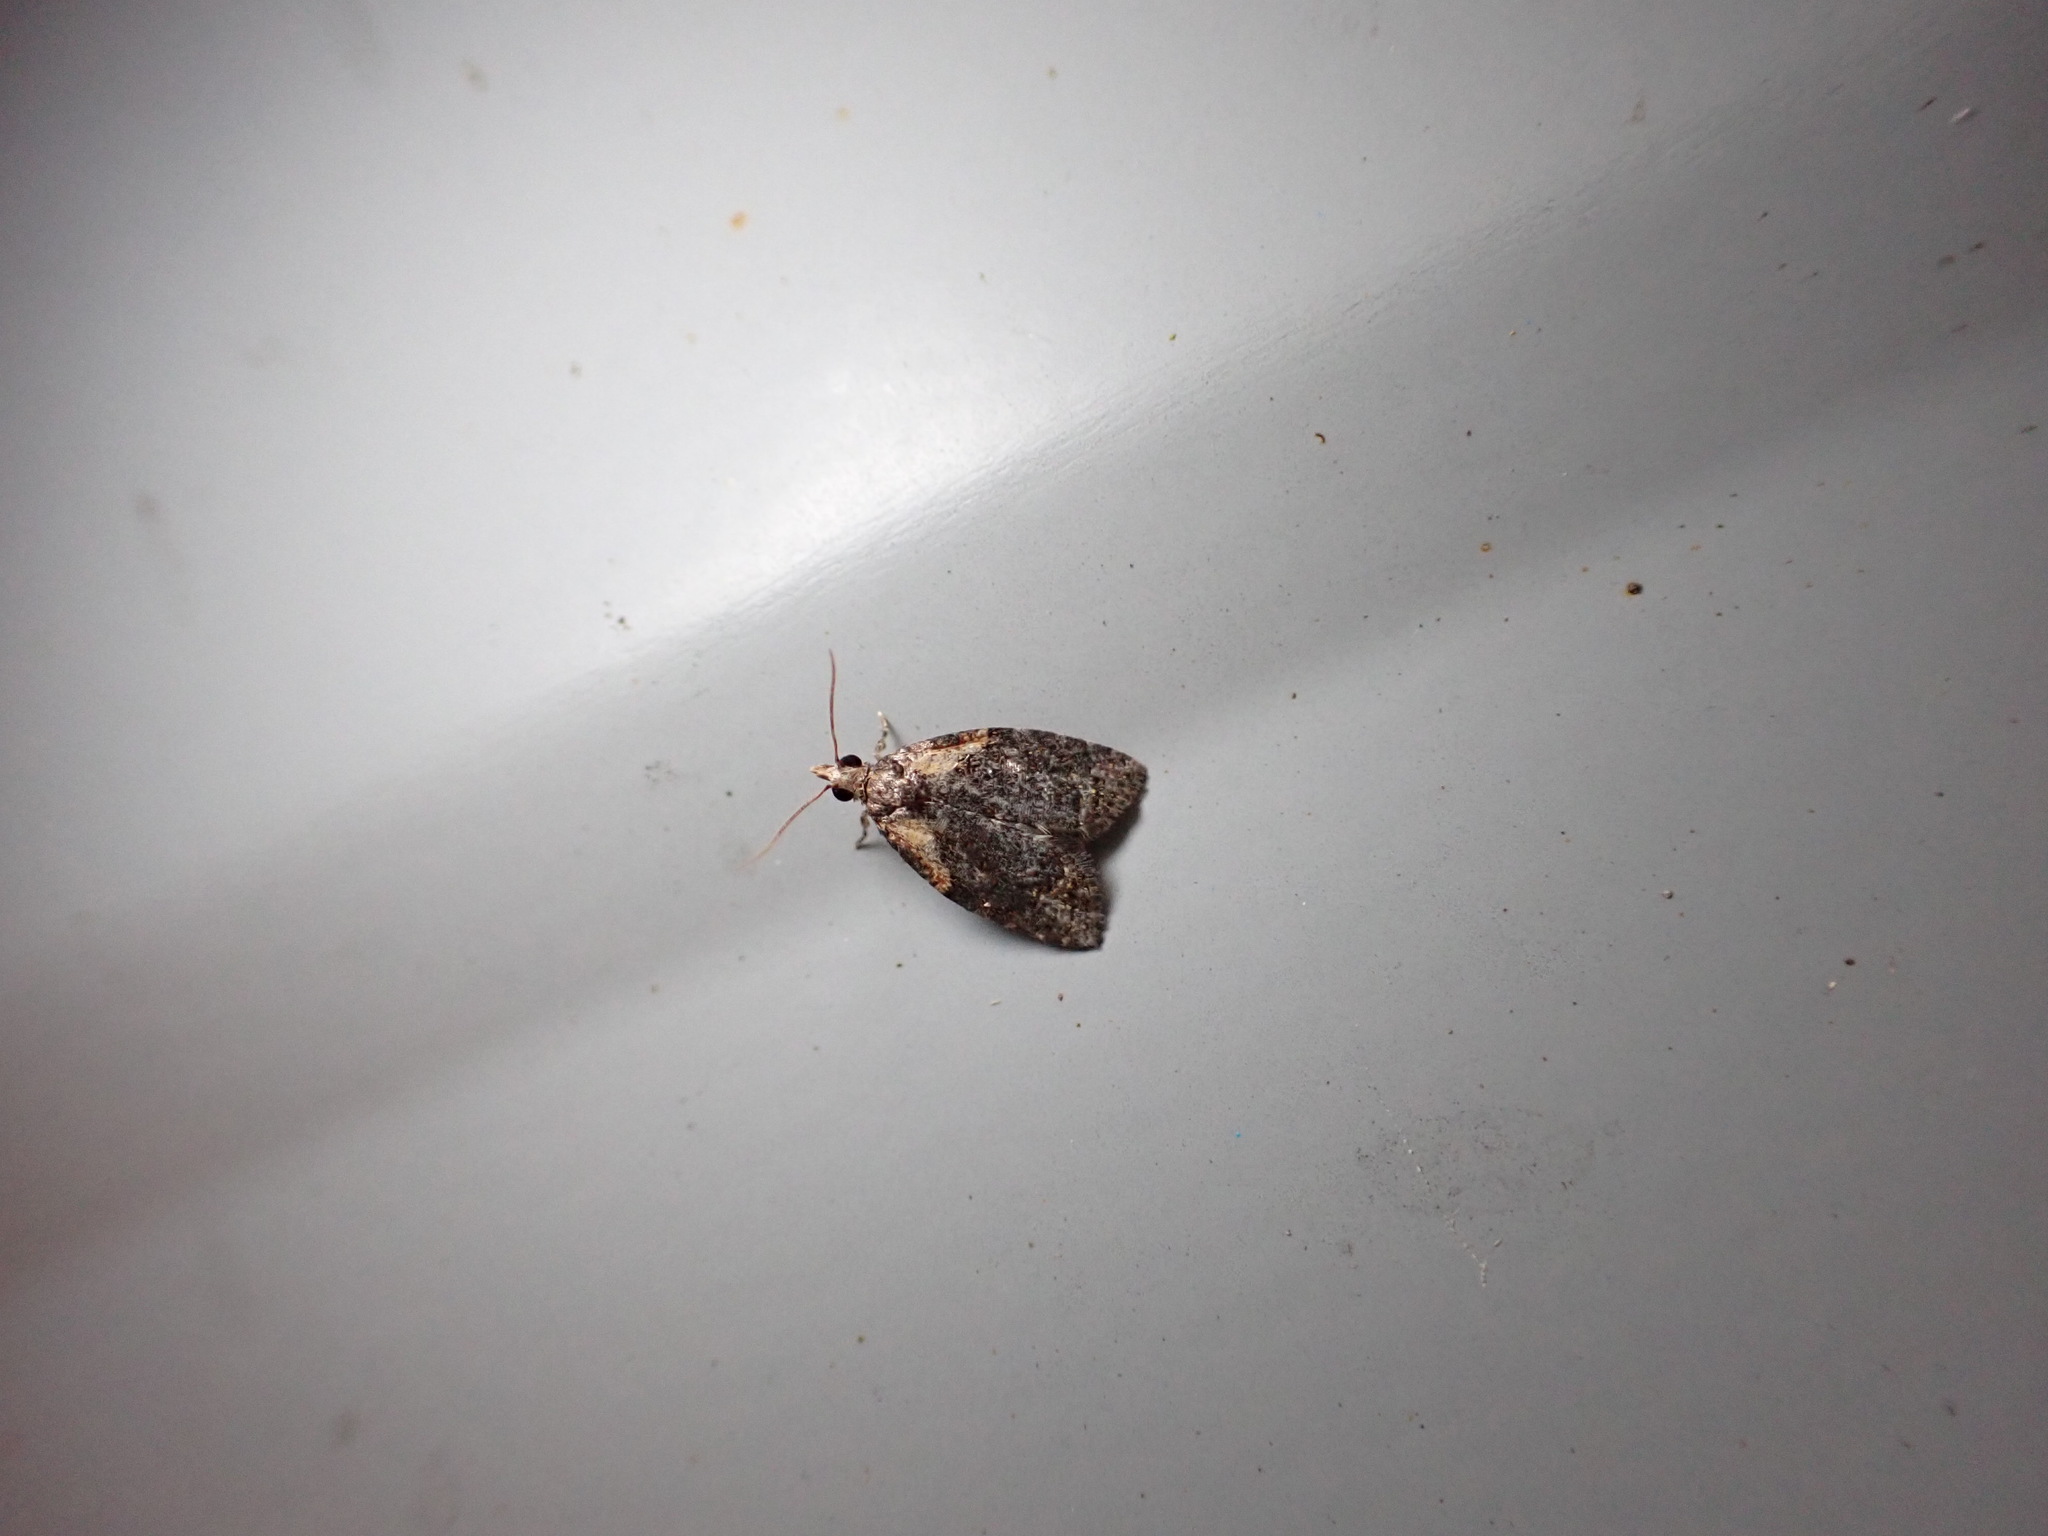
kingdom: Animalia
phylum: Arthropoda
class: Insecta
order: Lepidoptera
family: Tortricidae
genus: Capua
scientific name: Capua intractana
